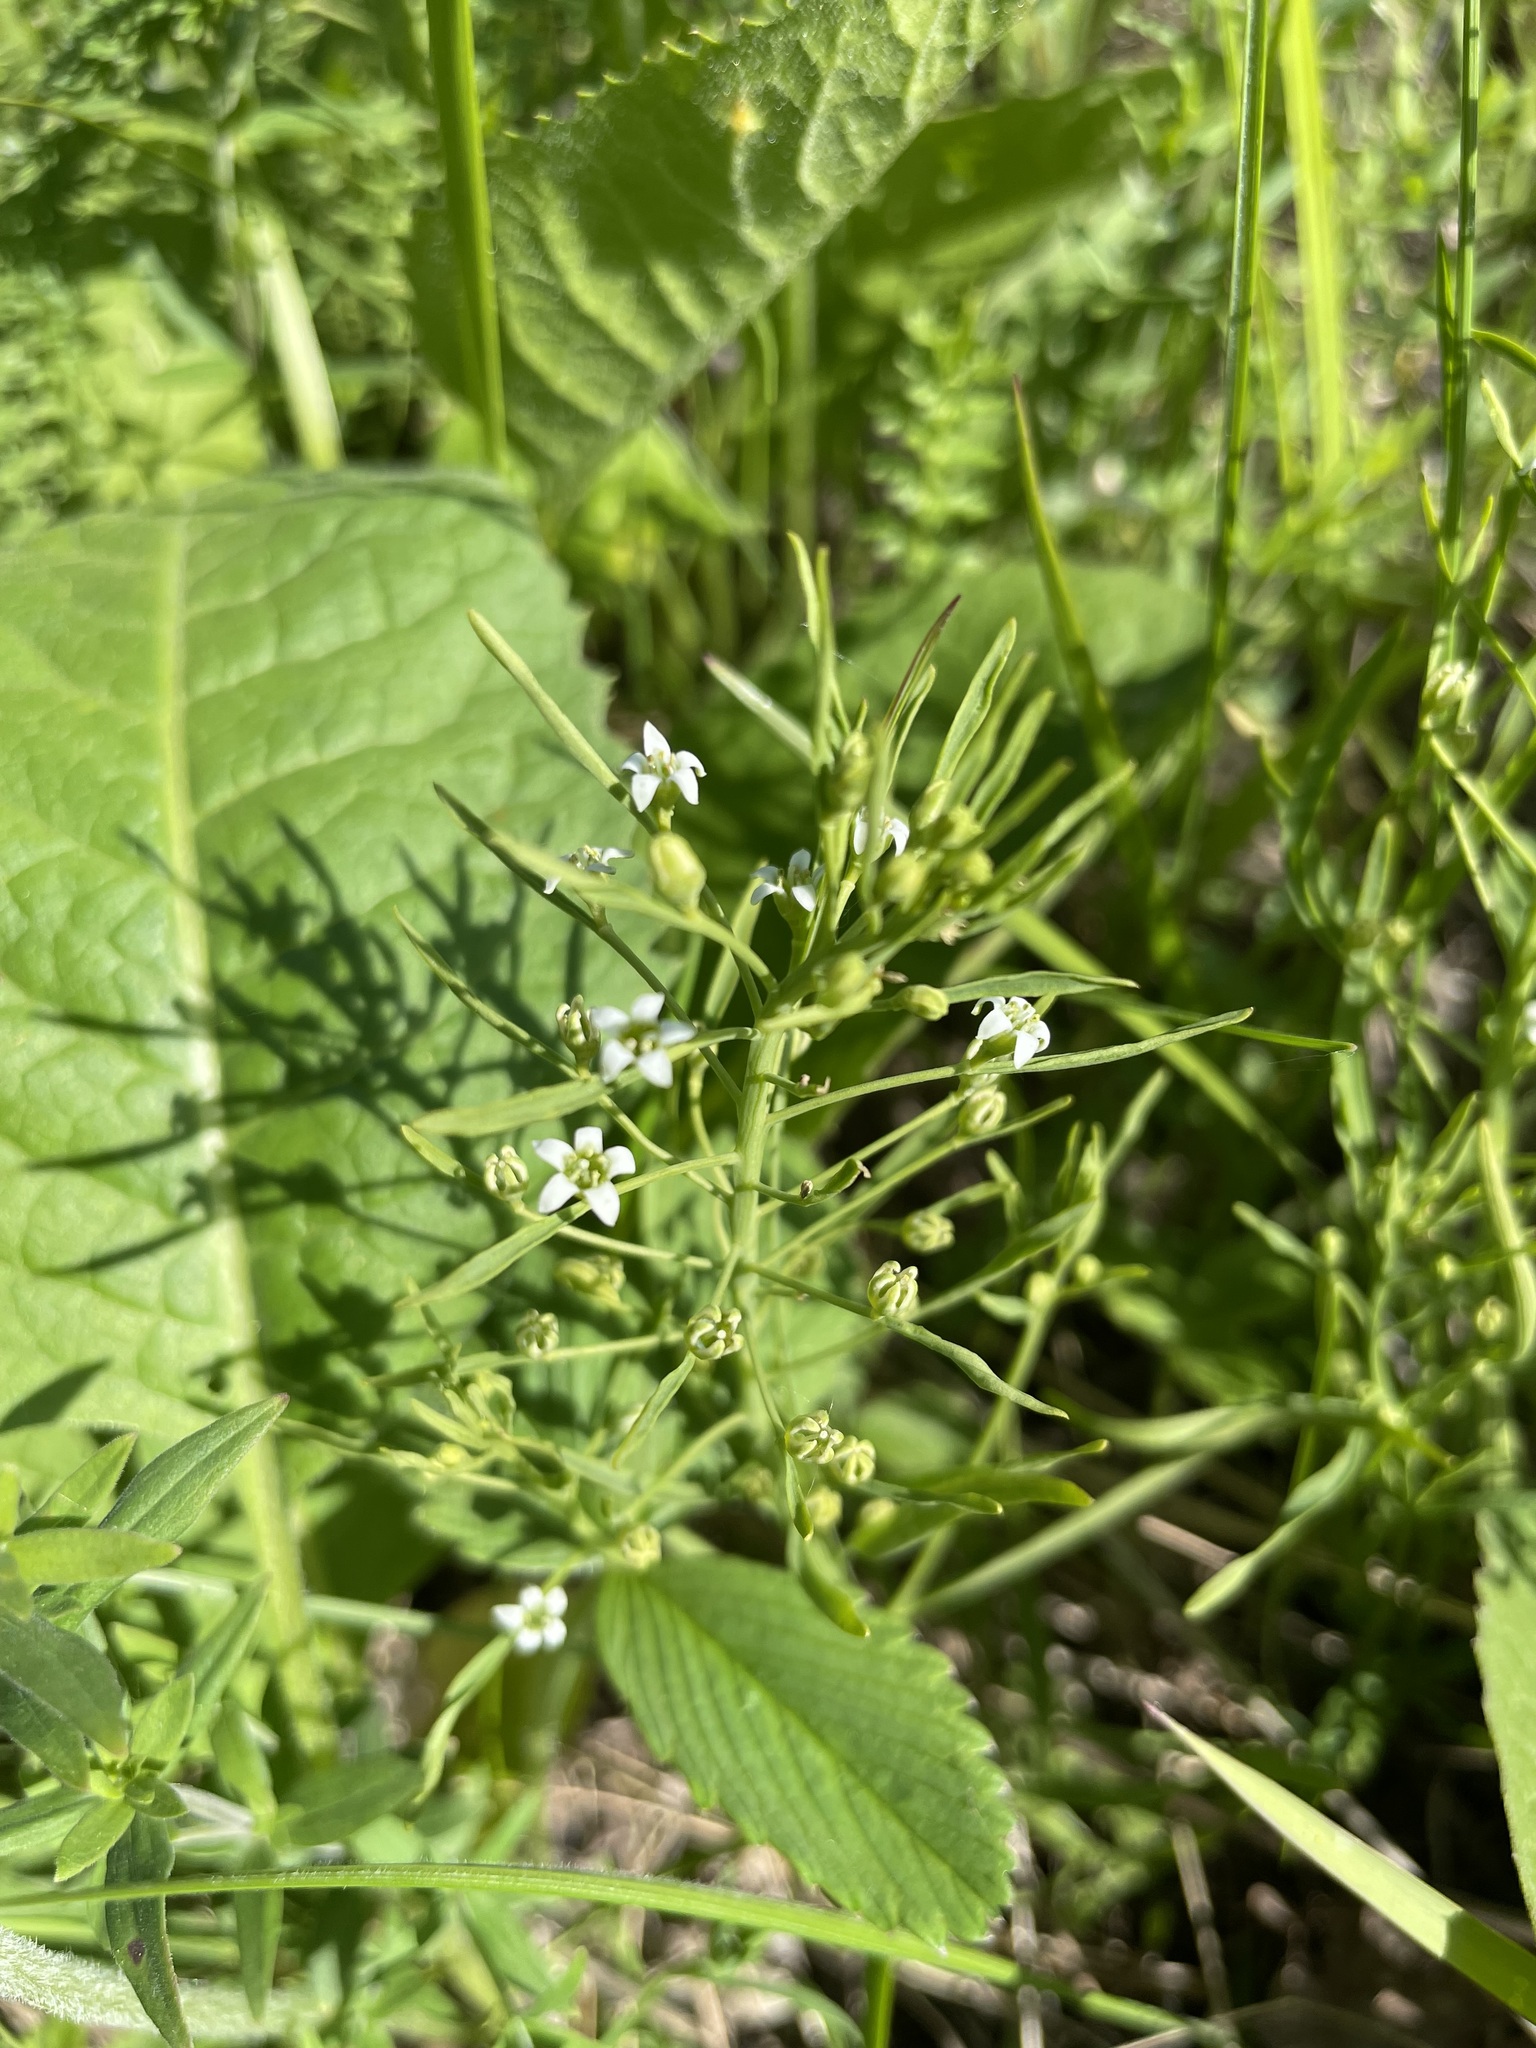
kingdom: Plantae
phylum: Tracheophyta
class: Magnoliopsida
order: Santalales
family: Thesiaceae
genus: Thesium
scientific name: Thesium ebracteatum
